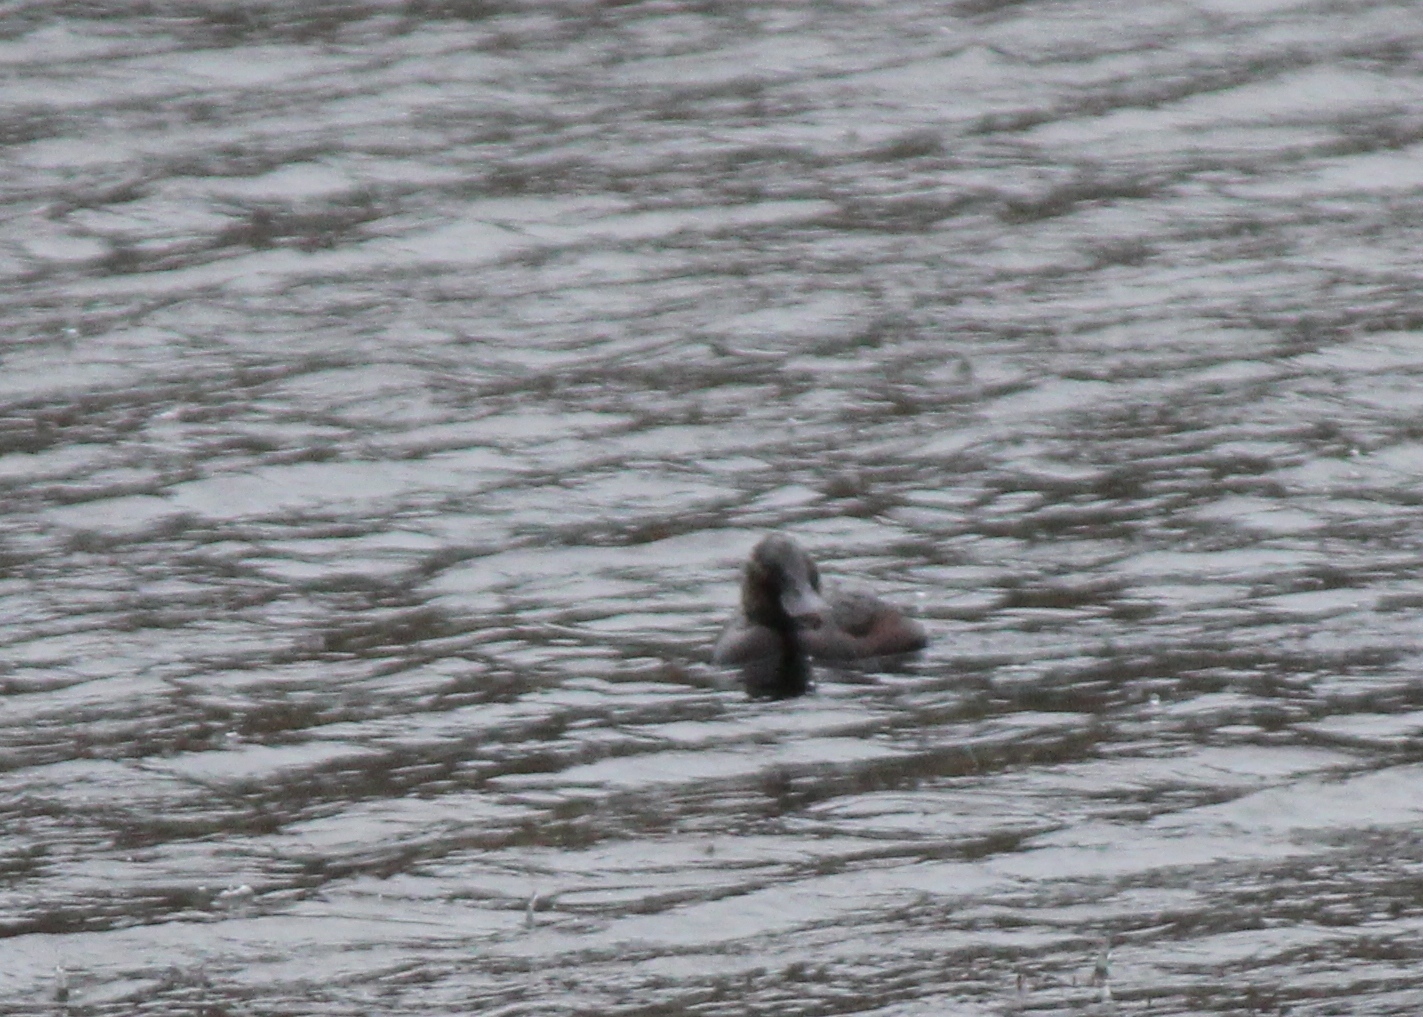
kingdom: Animalia
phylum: Chordata
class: Aves
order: Anseriformes
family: Anatidae
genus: Oxyura
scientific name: Oxyura vittata
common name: Lake duck
